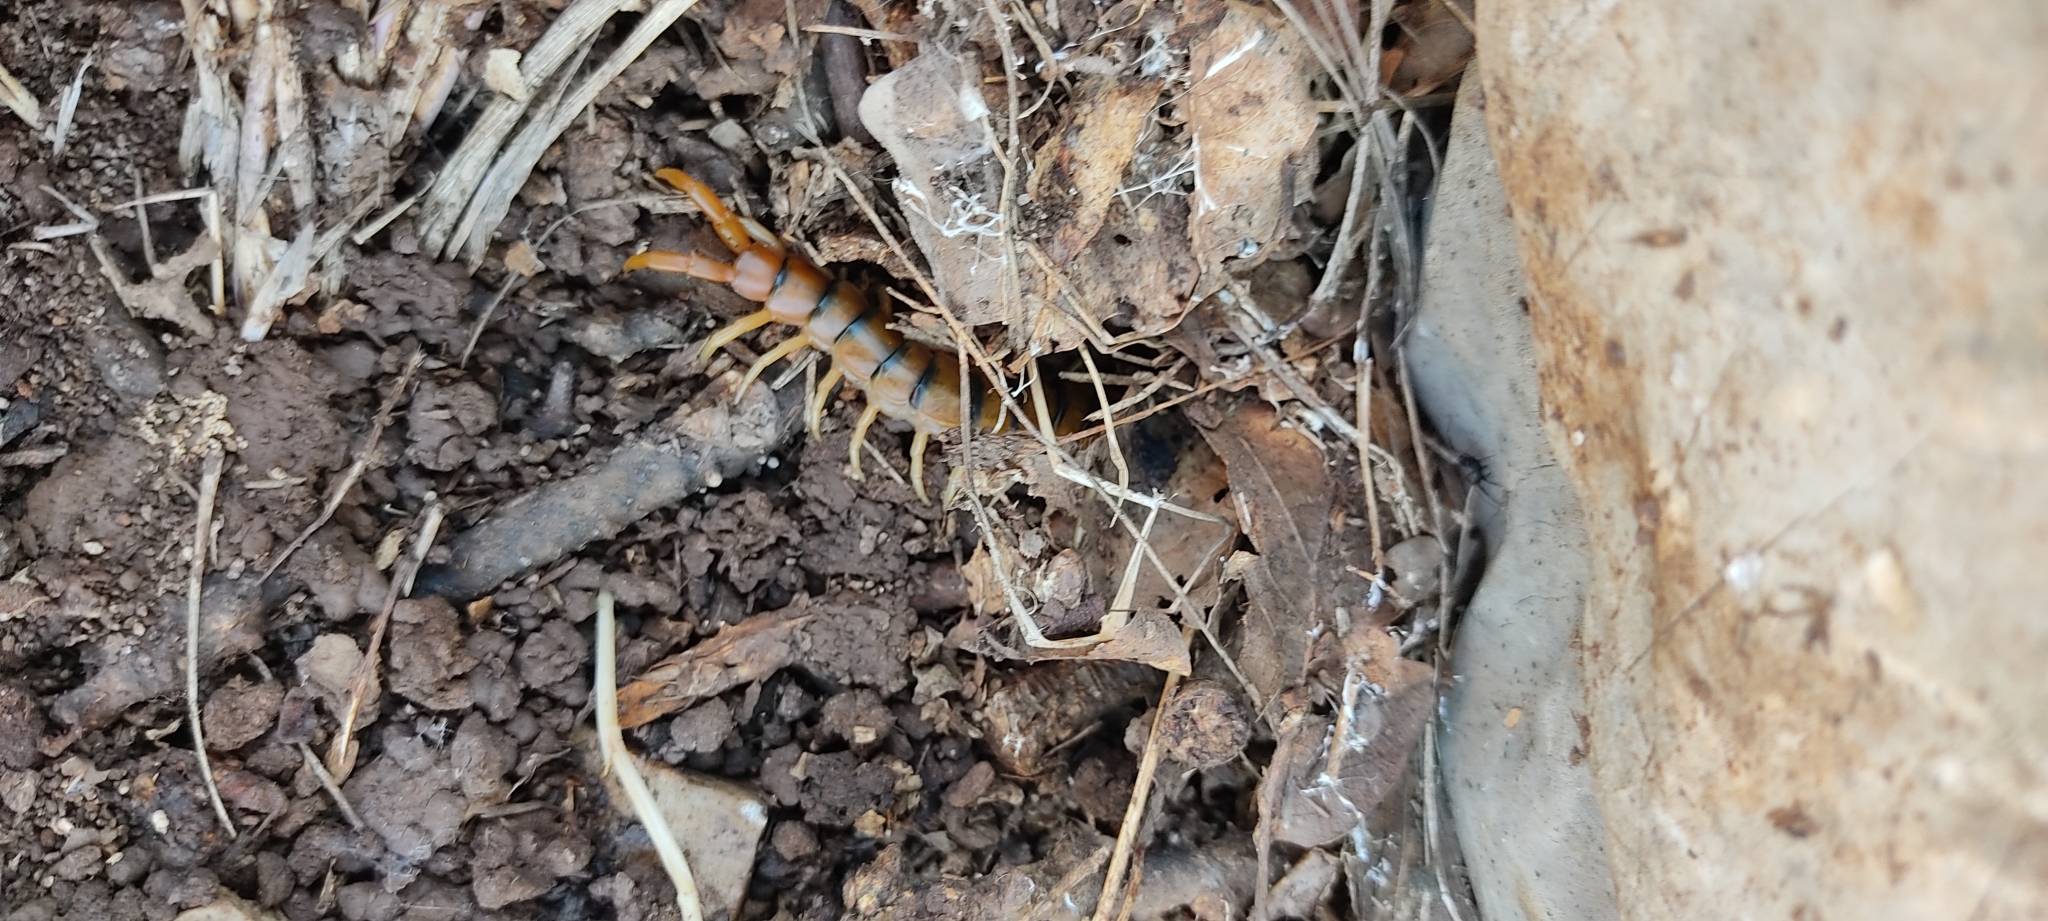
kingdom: Animalia
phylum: Arthropoda
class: Chilopoda
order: Scolopendromorpha
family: Scolopendridae
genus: Scolopendra
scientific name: Scolopendra cingulata
